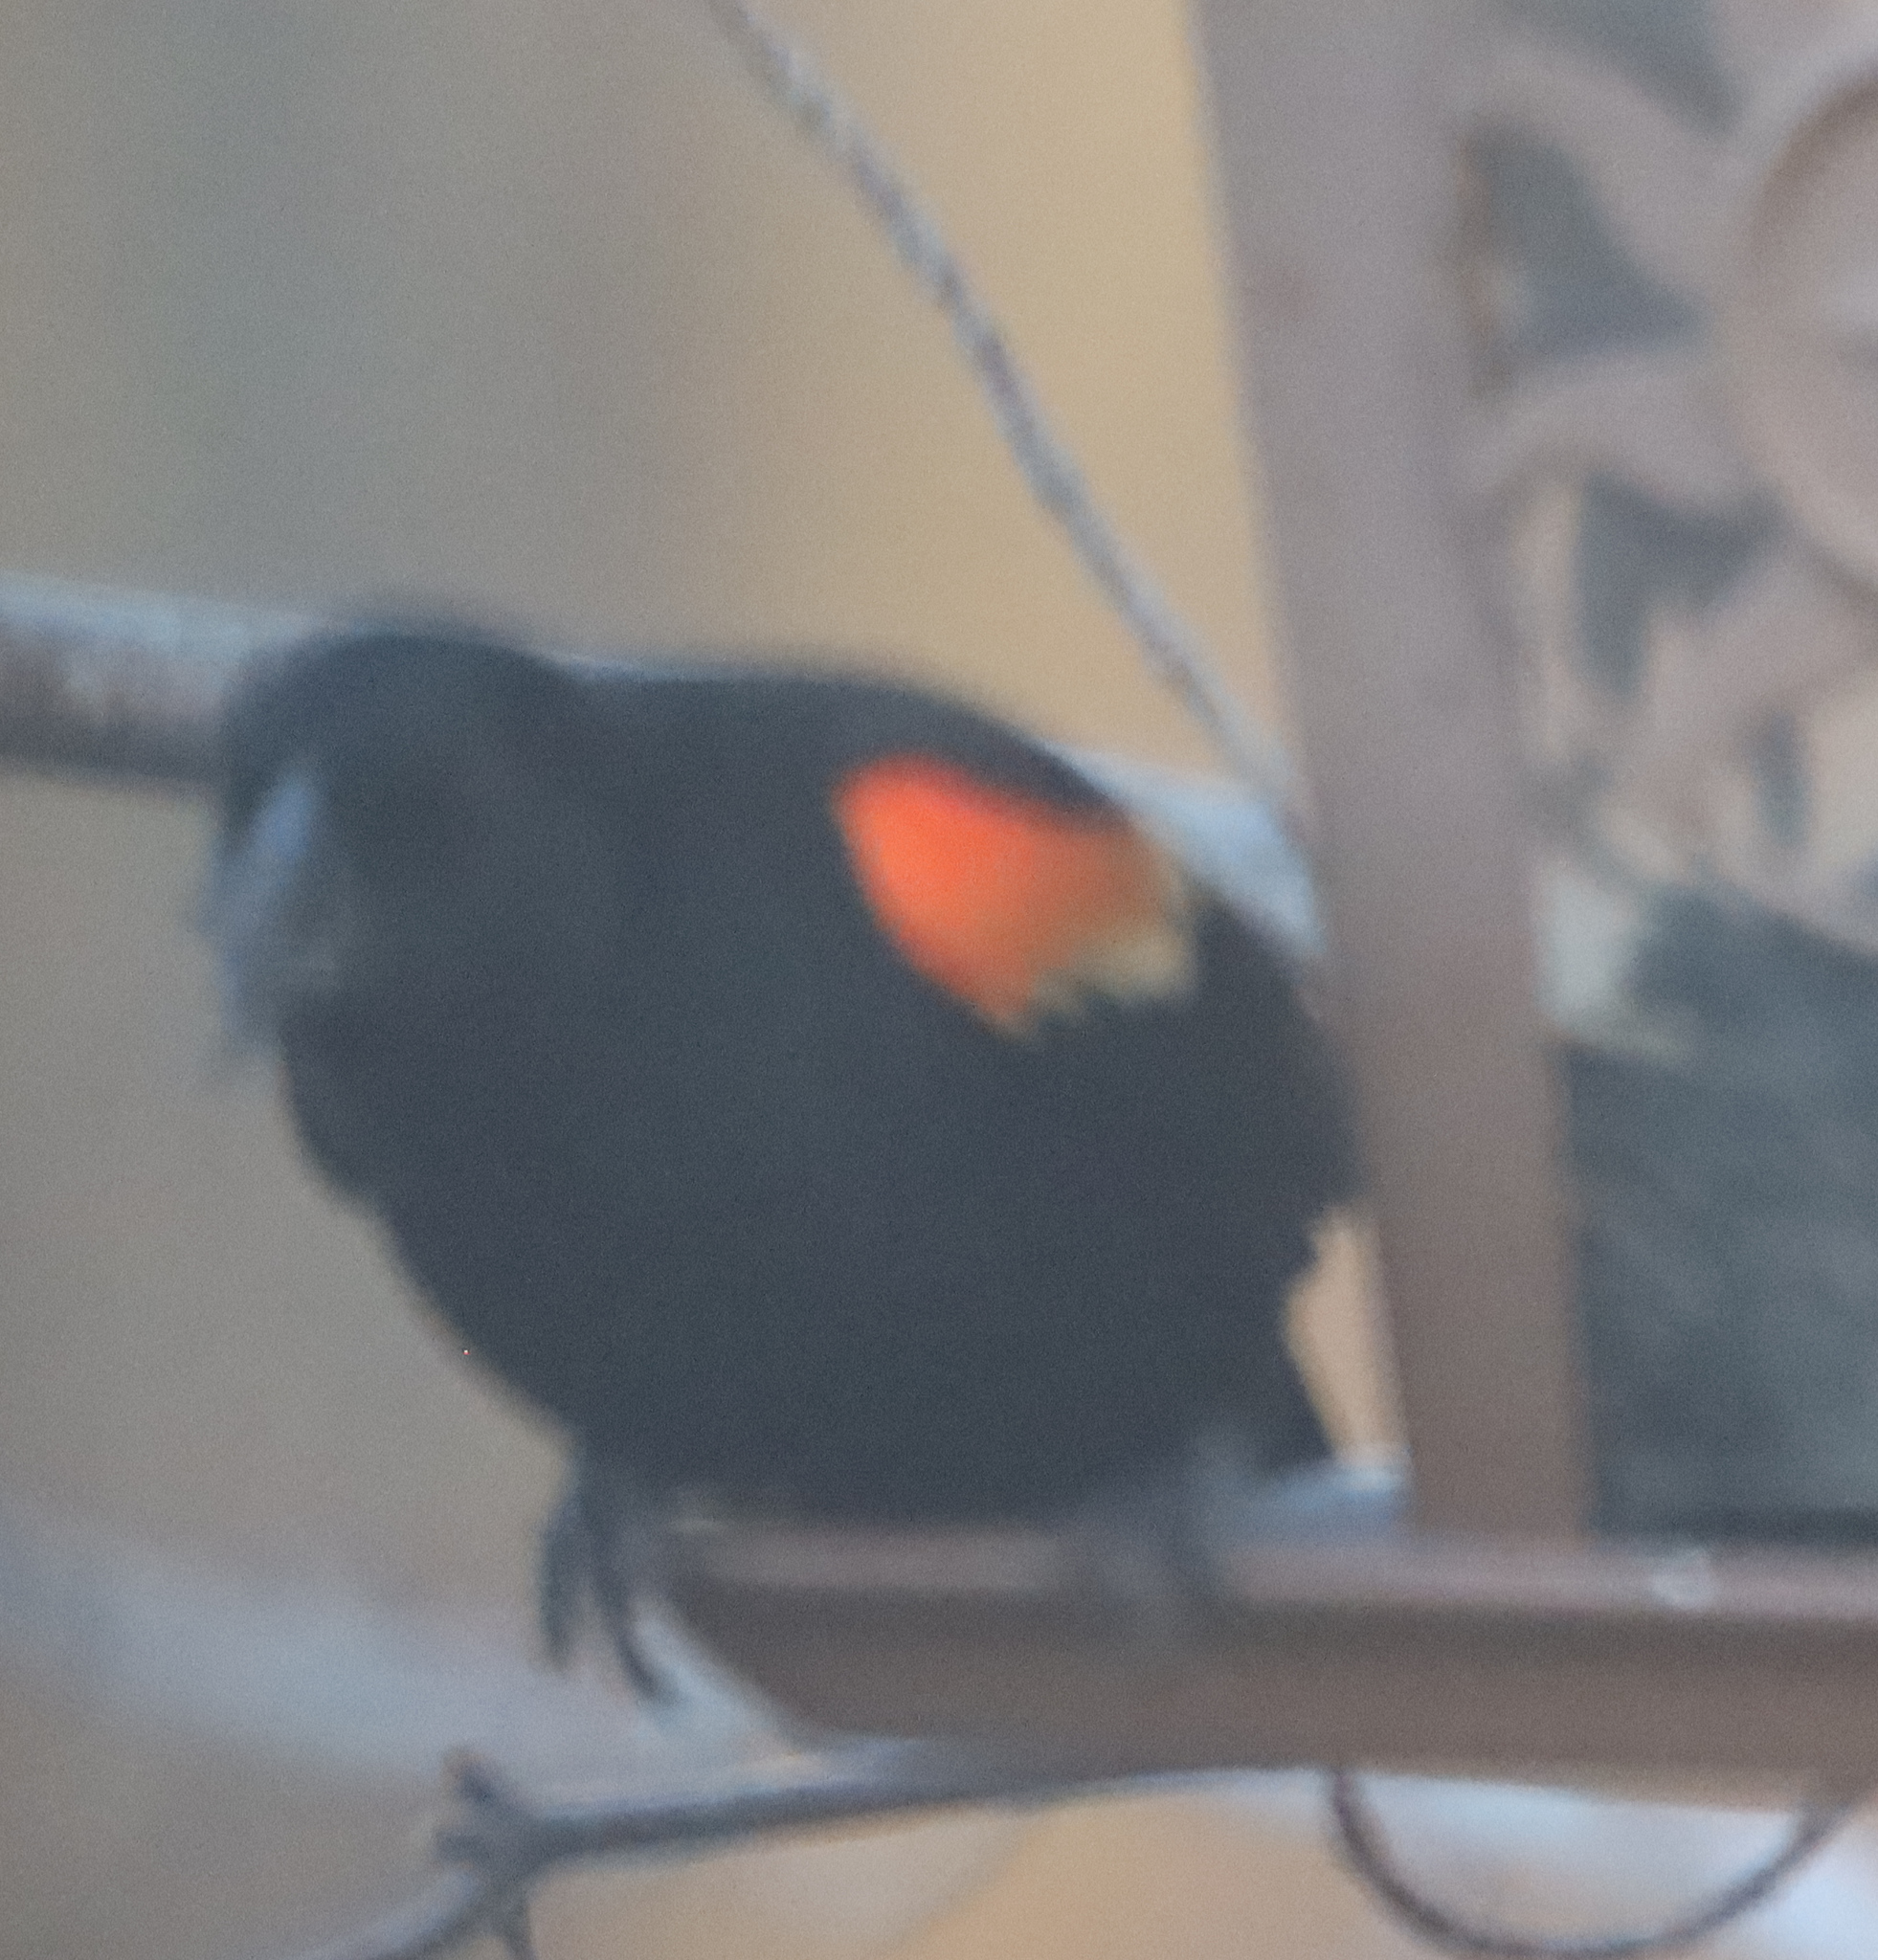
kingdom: Animalia
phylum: Chordata
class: Aves
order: Passeriformes
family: Icteridae
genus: Agelaius
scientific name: Agelaius phoeniceus
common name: Red-winged blackbird
